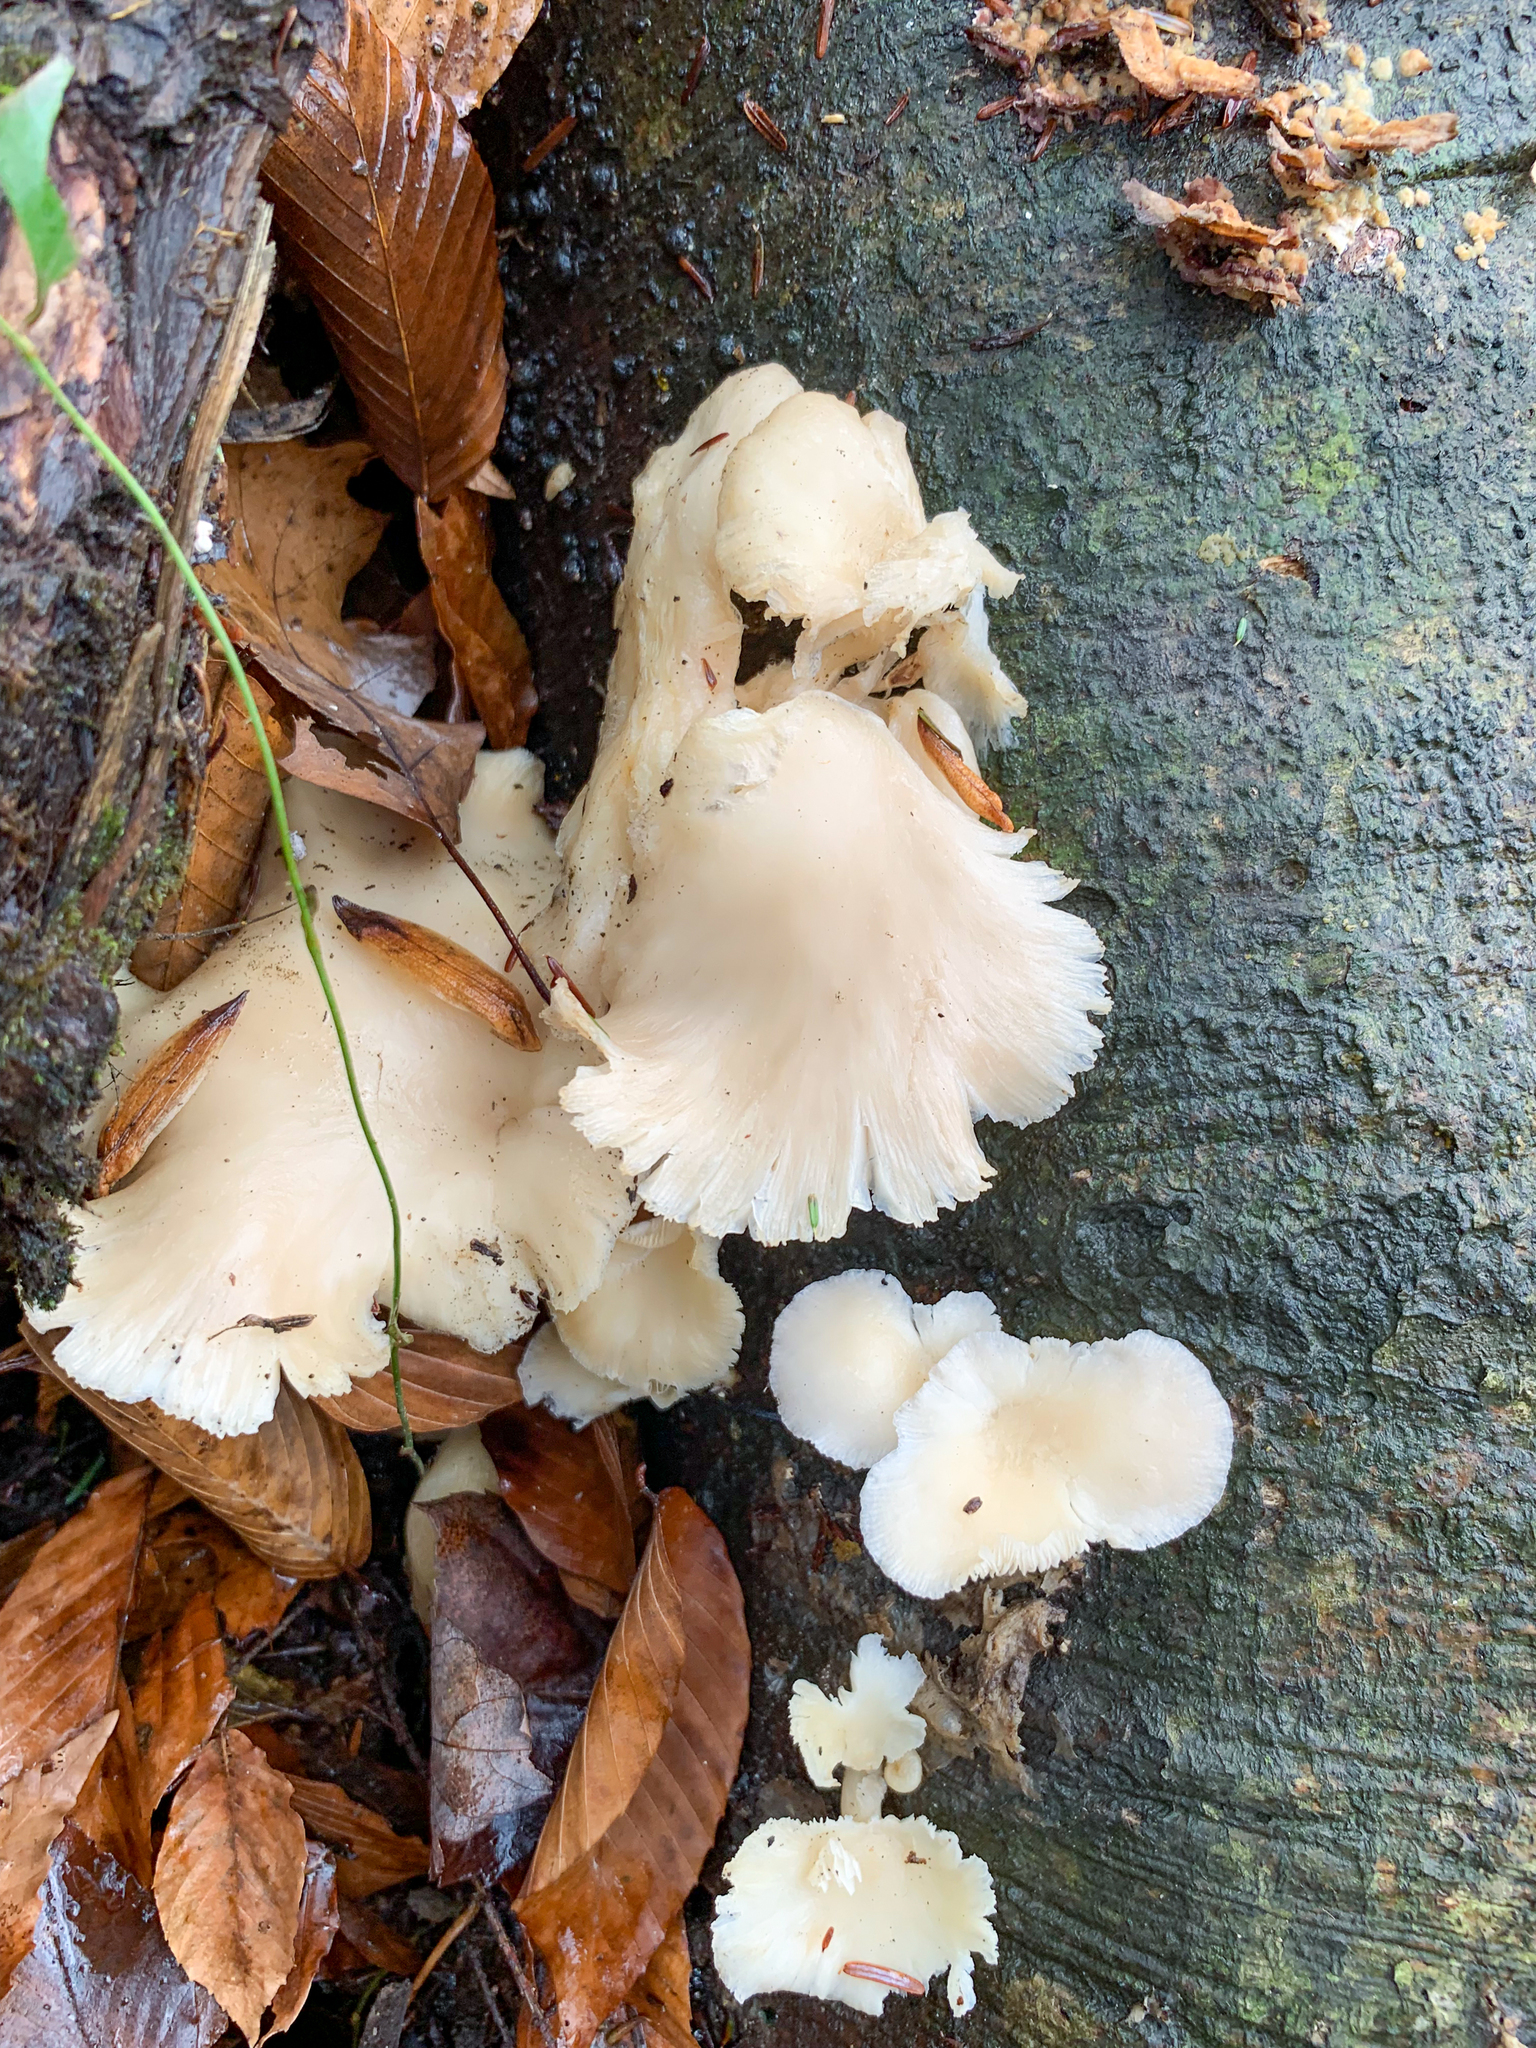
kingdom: Fungi
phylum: Basidiomycota
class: Agaricomycetes
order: Agaricales
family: Pleurotaceae
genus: Pleurotus
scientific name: Pleurotus pulmonarius
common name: Pale oyster
